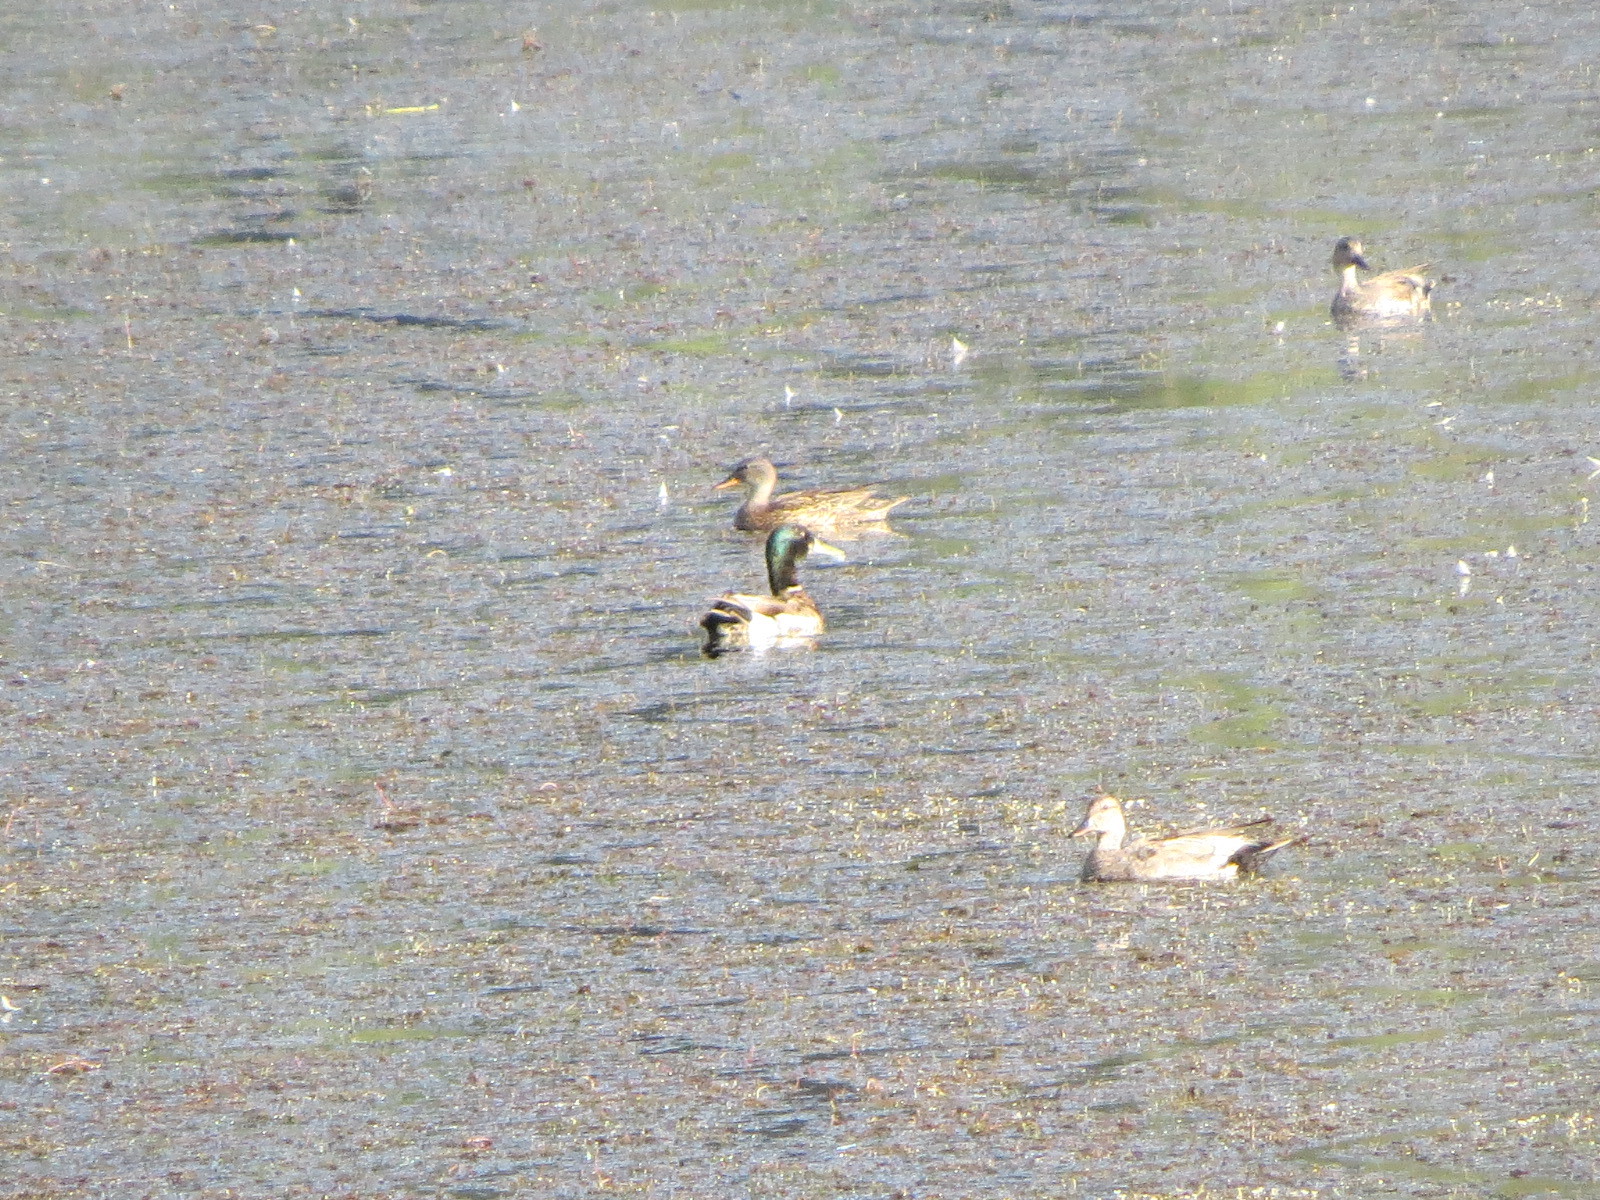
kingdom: Animalia
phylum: Chordata
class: Aves
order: Anseriformes
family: Anatidae
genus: Anas
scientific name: Anas platyrhynchos
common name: Mallard
